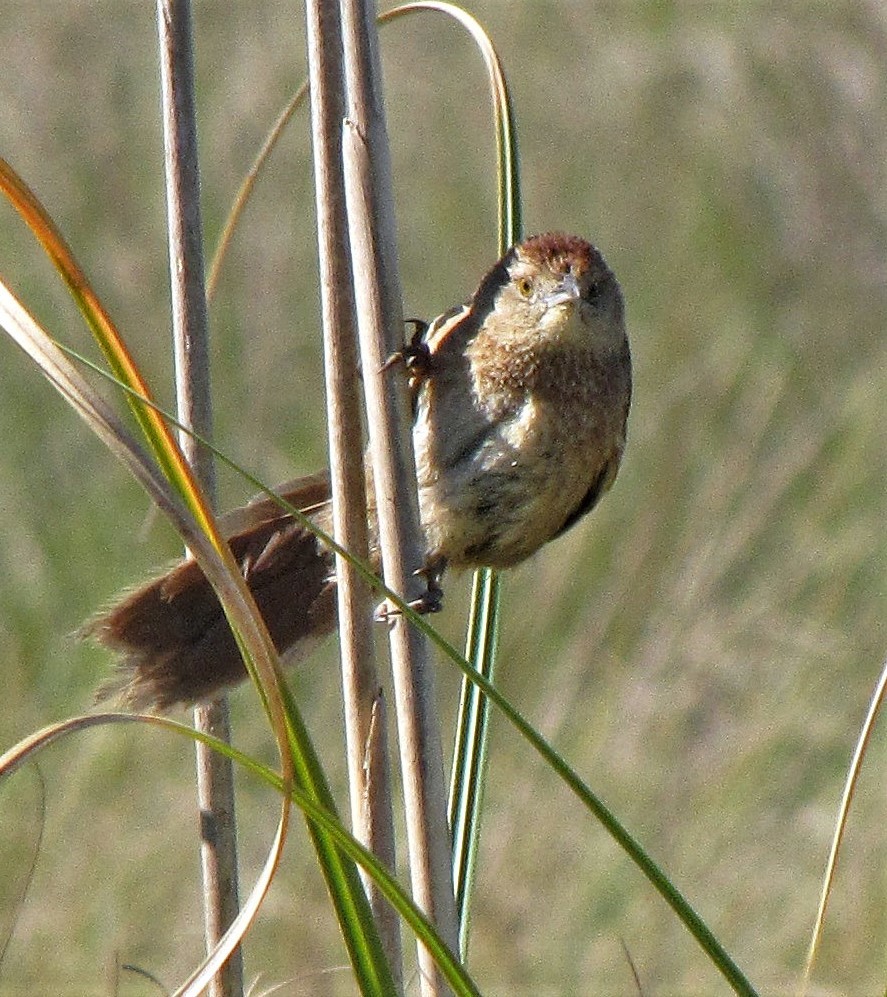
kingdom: Animalia
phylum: Chordata
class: Aves
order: Passeriformes
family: Furnariidae
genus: Phacellodomus
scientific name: Phacellodomus striaticollis
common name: Freckle-breasted thornbird
